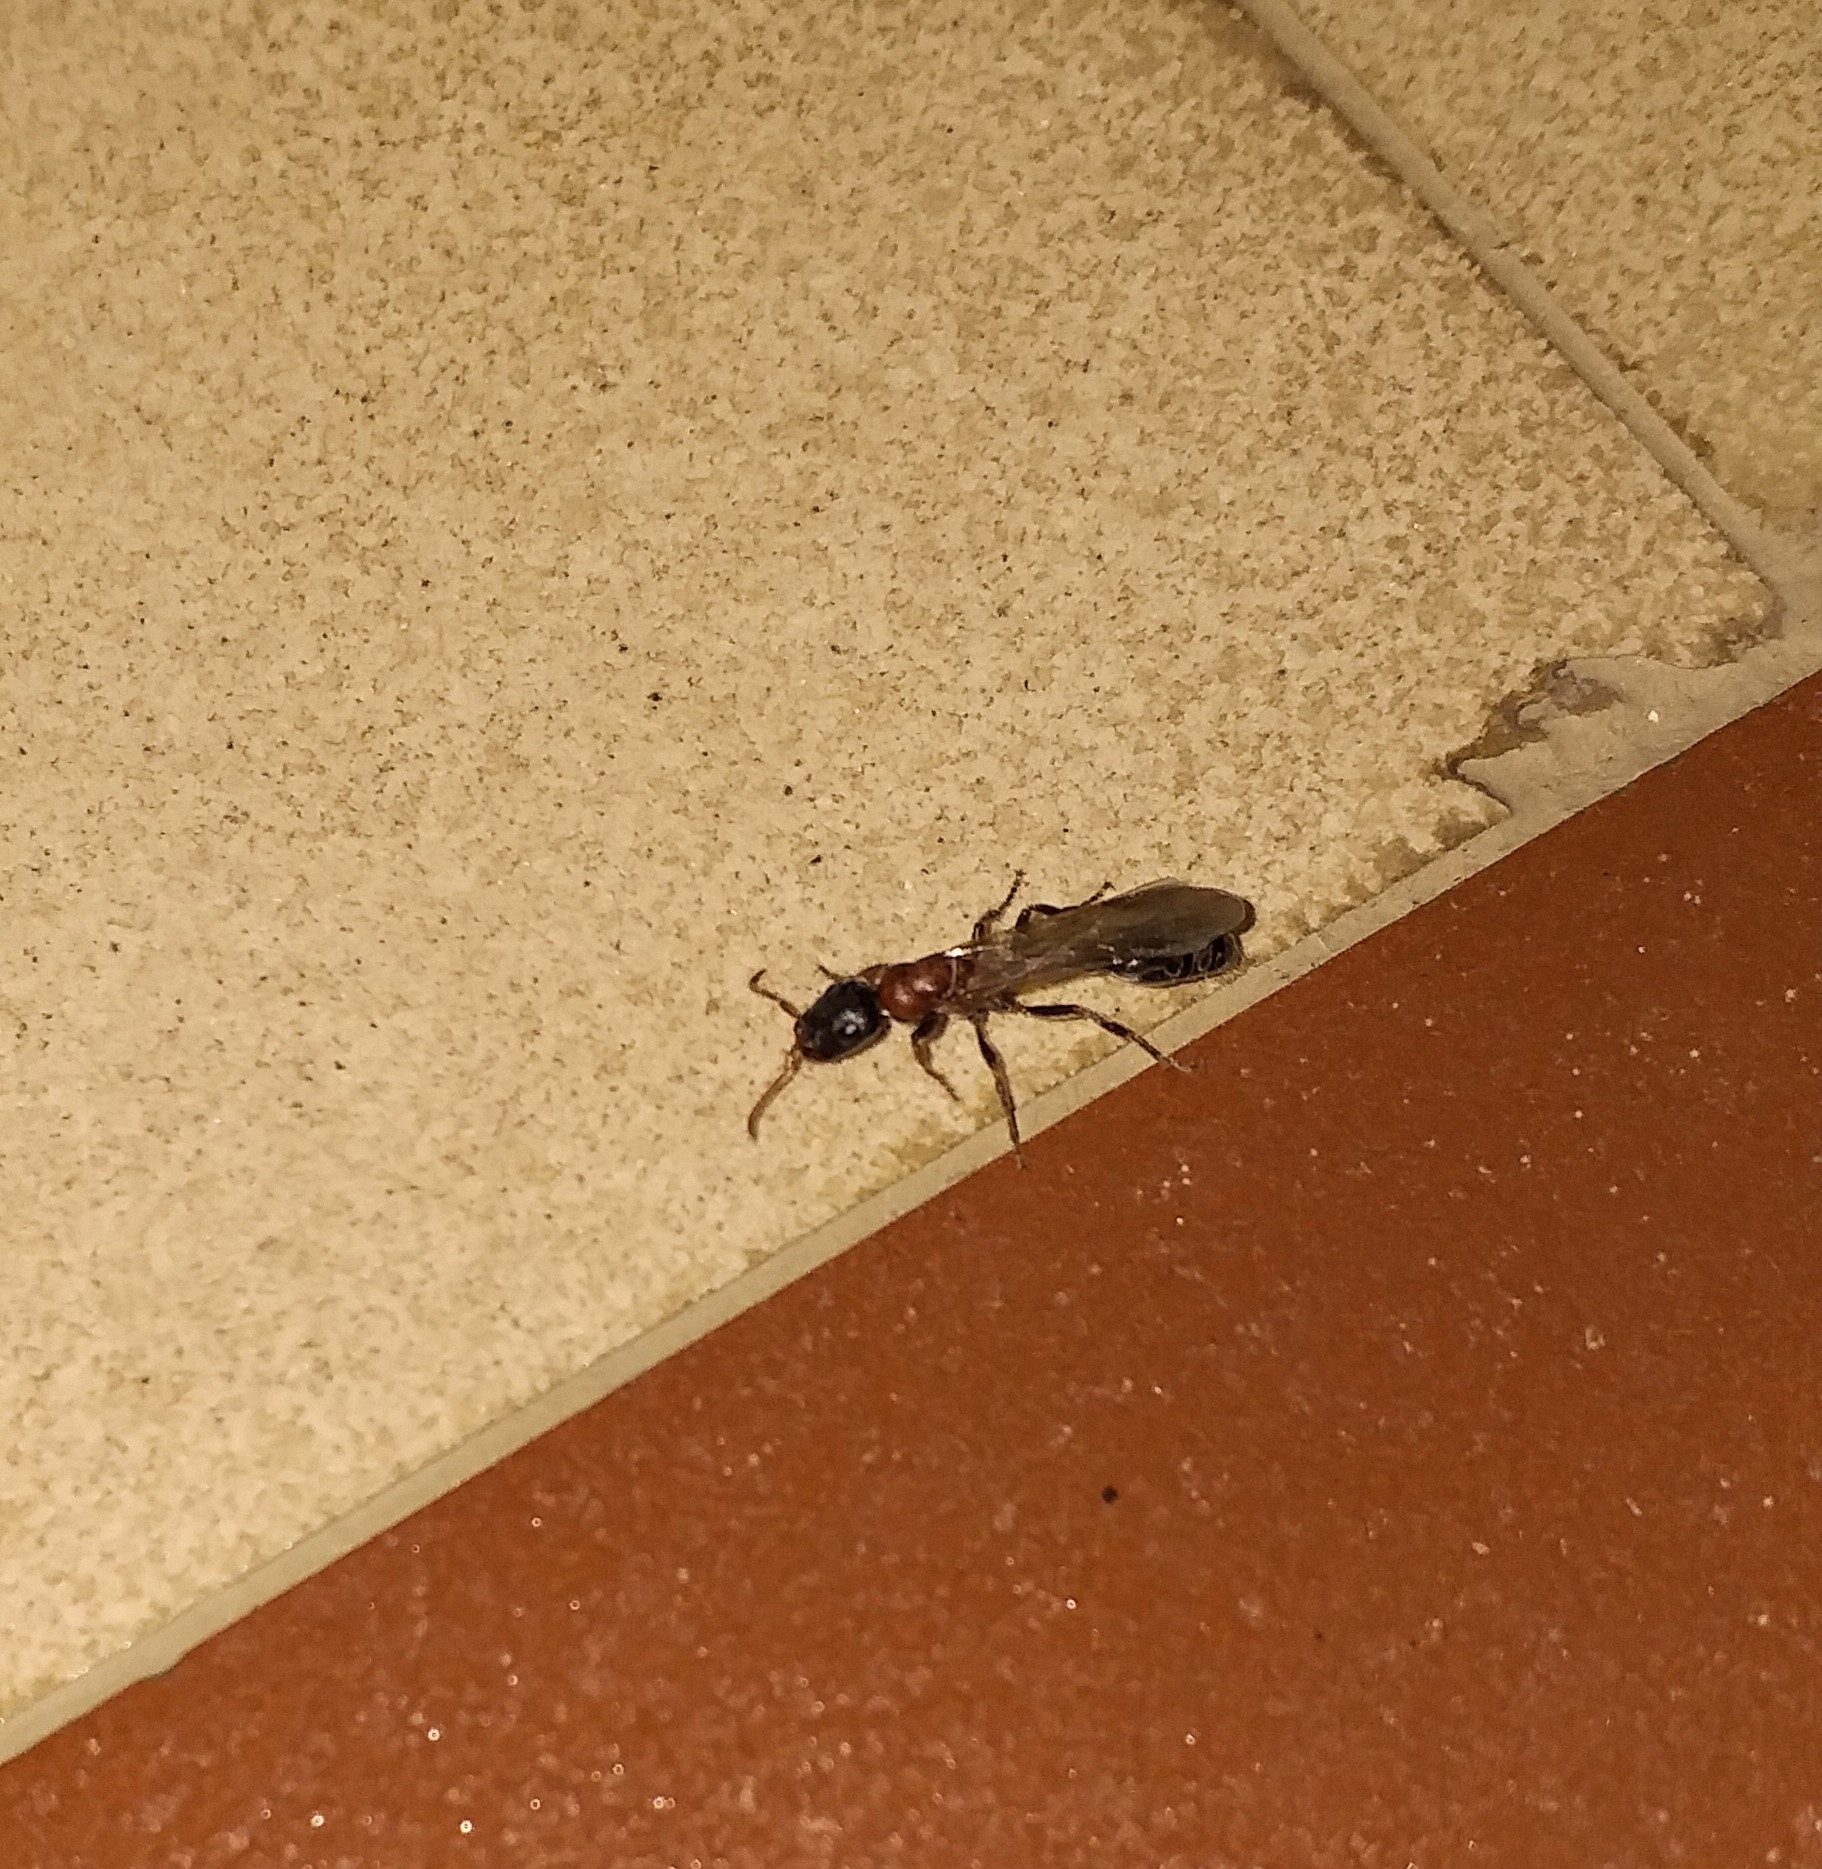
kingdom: Animalia
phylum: Arthropoda
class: Insecta
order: Hymenoptera
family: Formicidae
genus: Tetraponera
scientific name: Tetraponera rufonigra
